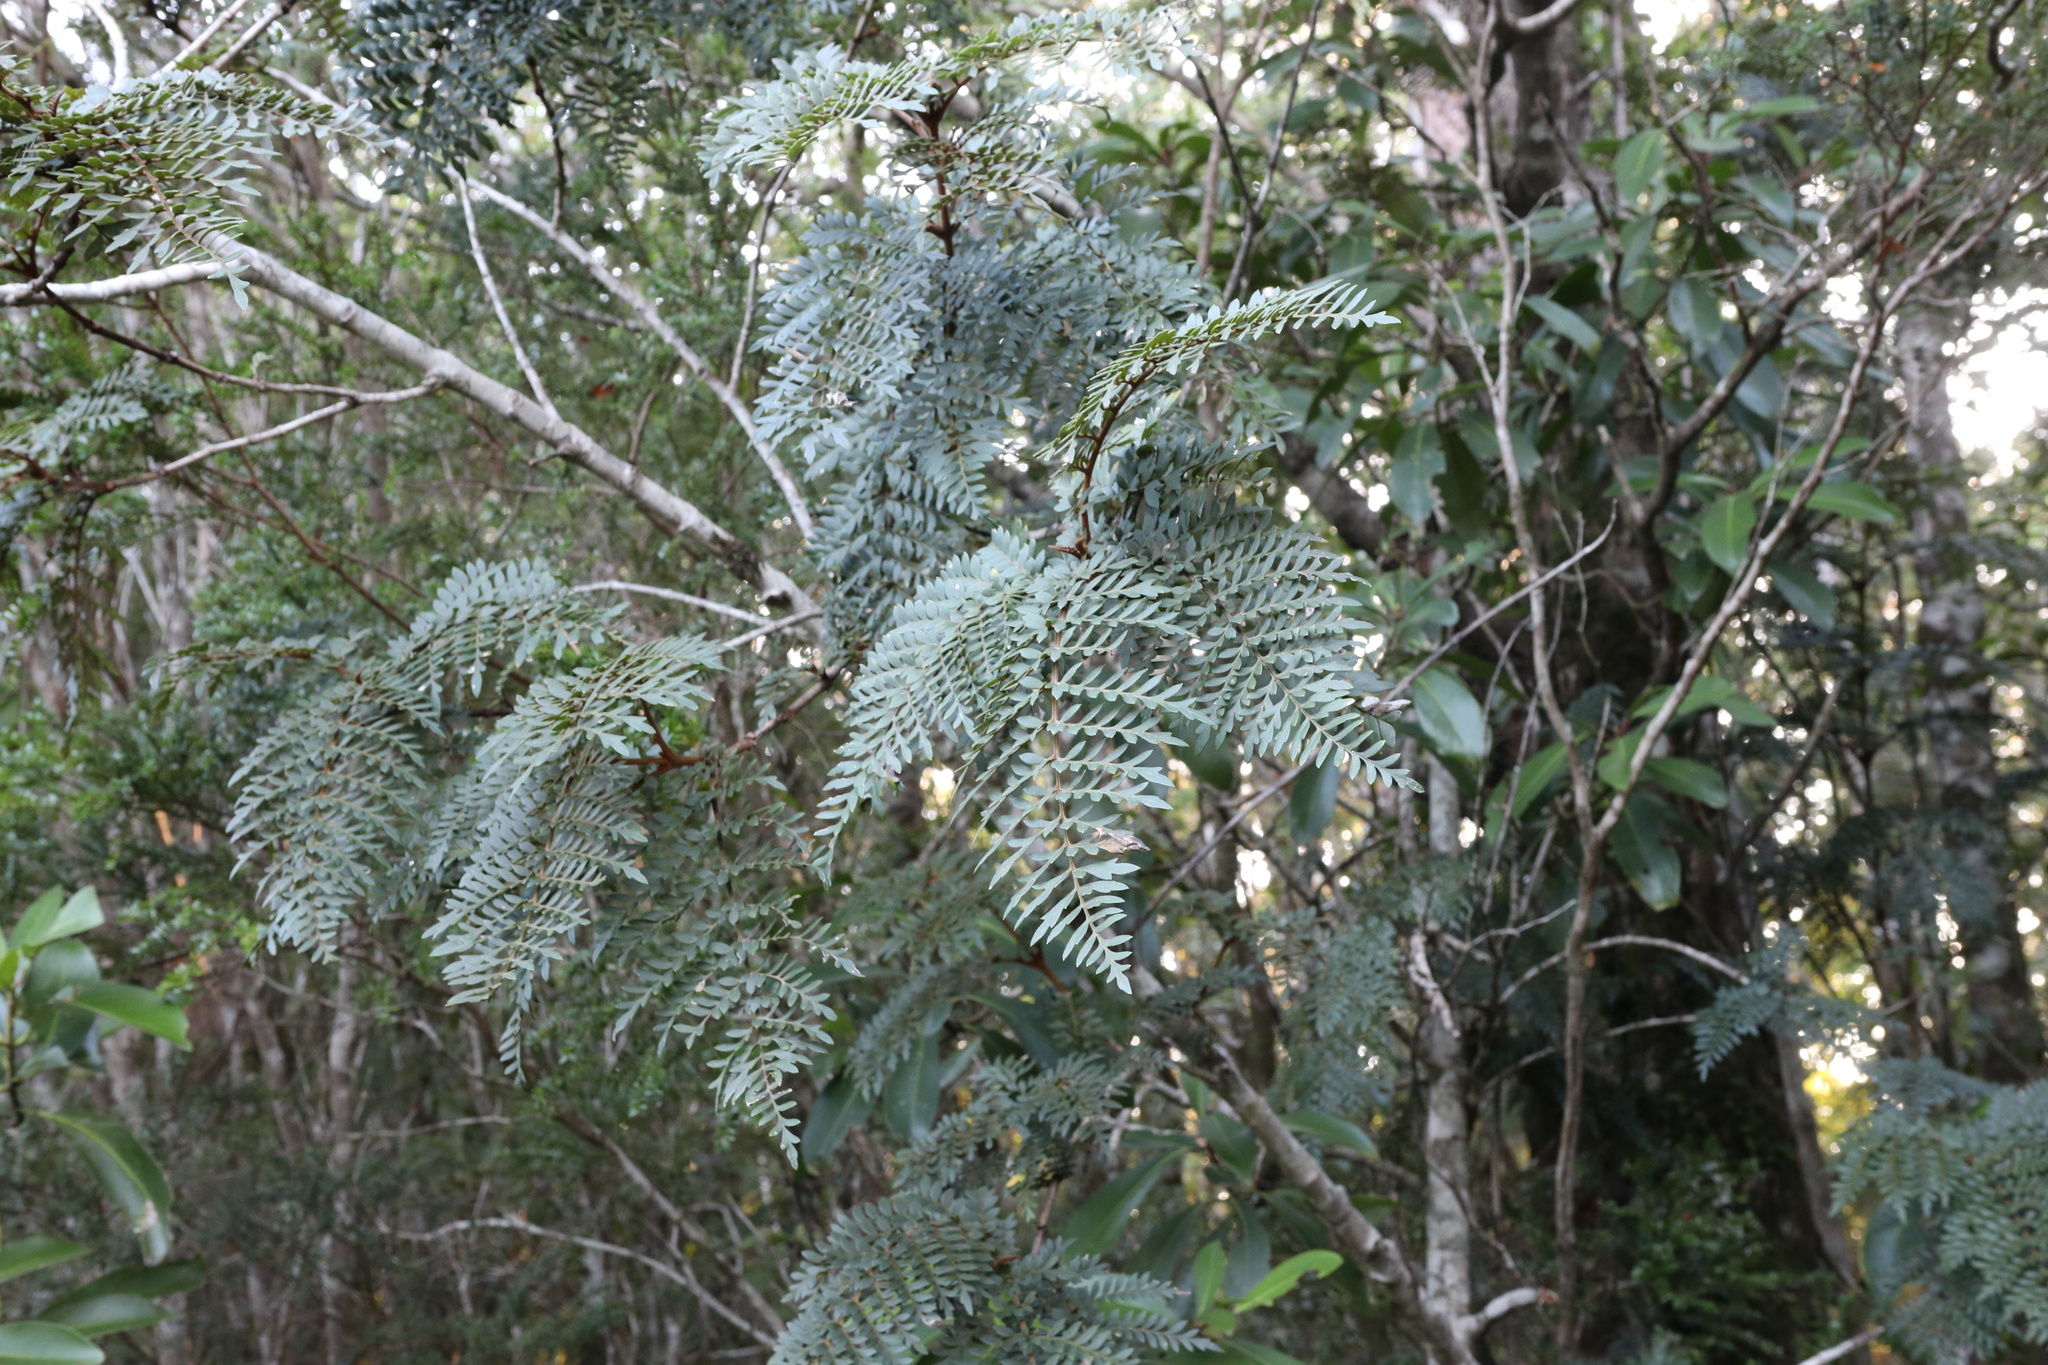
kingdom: Plantae
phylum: Tracheophyta
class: Magnoliopsida
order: Proteales
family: Proteaceae
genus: Lomatia
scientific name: Lomatia ferruginea
